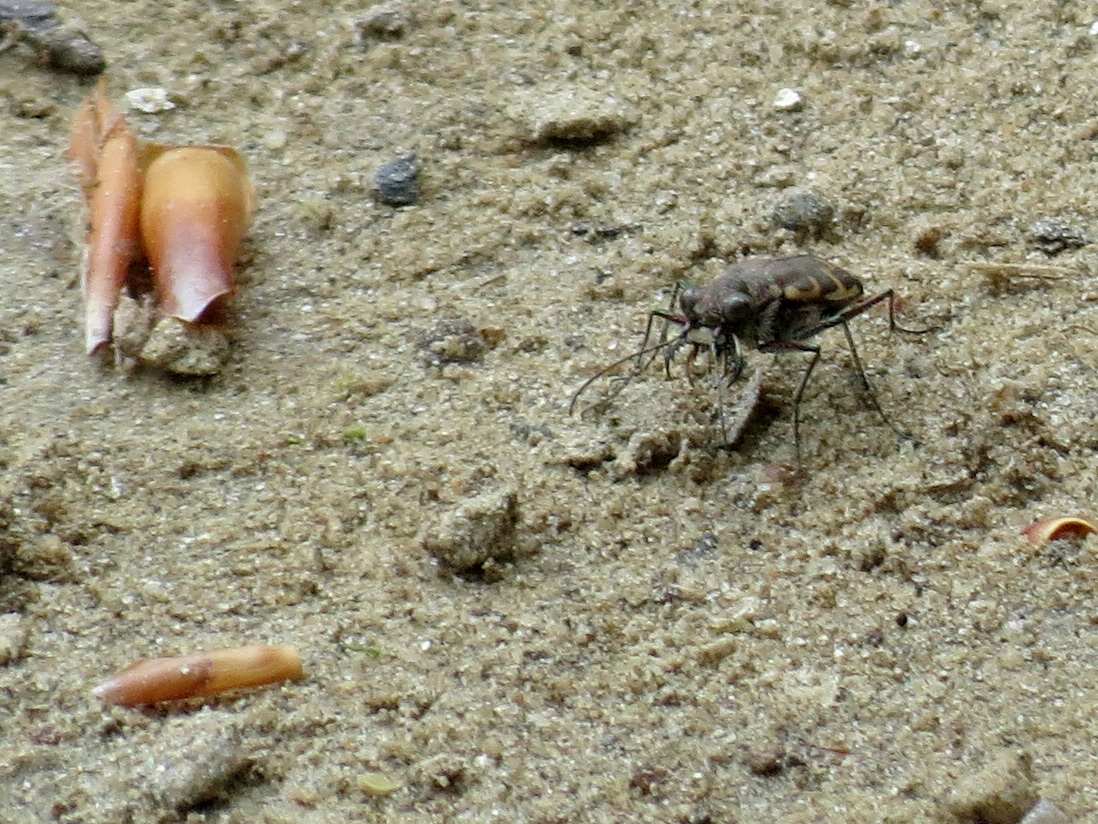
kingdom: Animalia
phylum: Arthropoda
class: Insecta
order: Coleoptera
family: Carabidae
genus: Cicindela
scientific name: Cicindela repanda
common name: Bronzed tiger beetle
